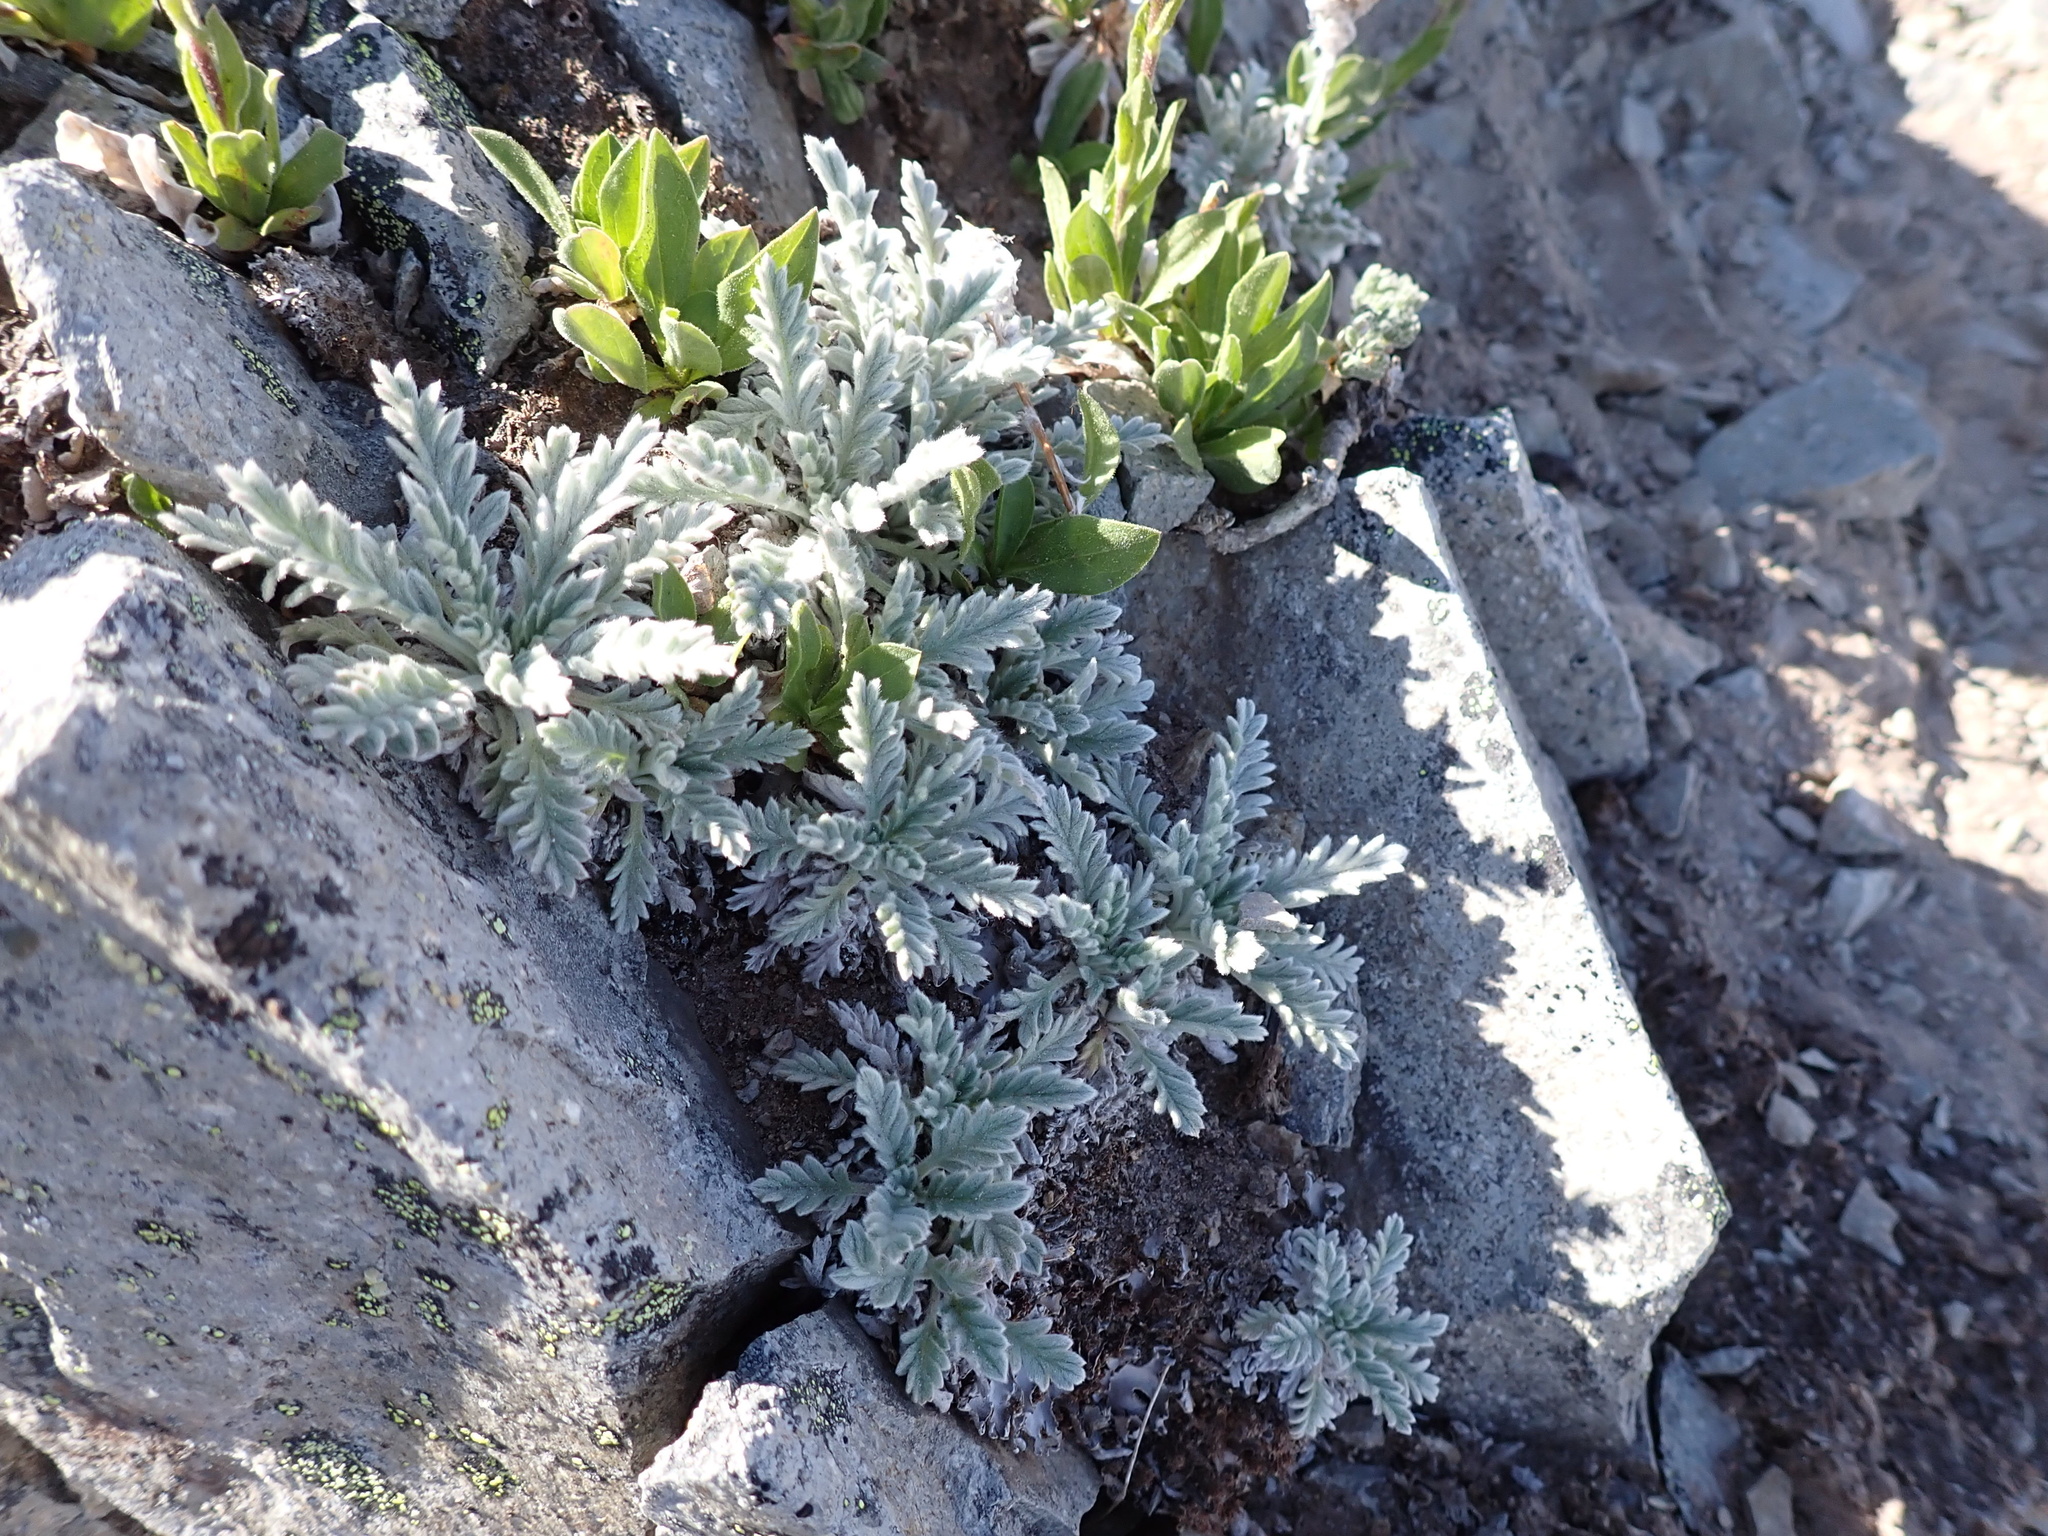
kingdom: Plantae
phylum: Tracheophyta
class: Magnoliopsida
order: Boraginales
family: Hydrophyllaceae
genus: Phacelia
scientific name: Phacelia sericea
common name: Silky phacelia
